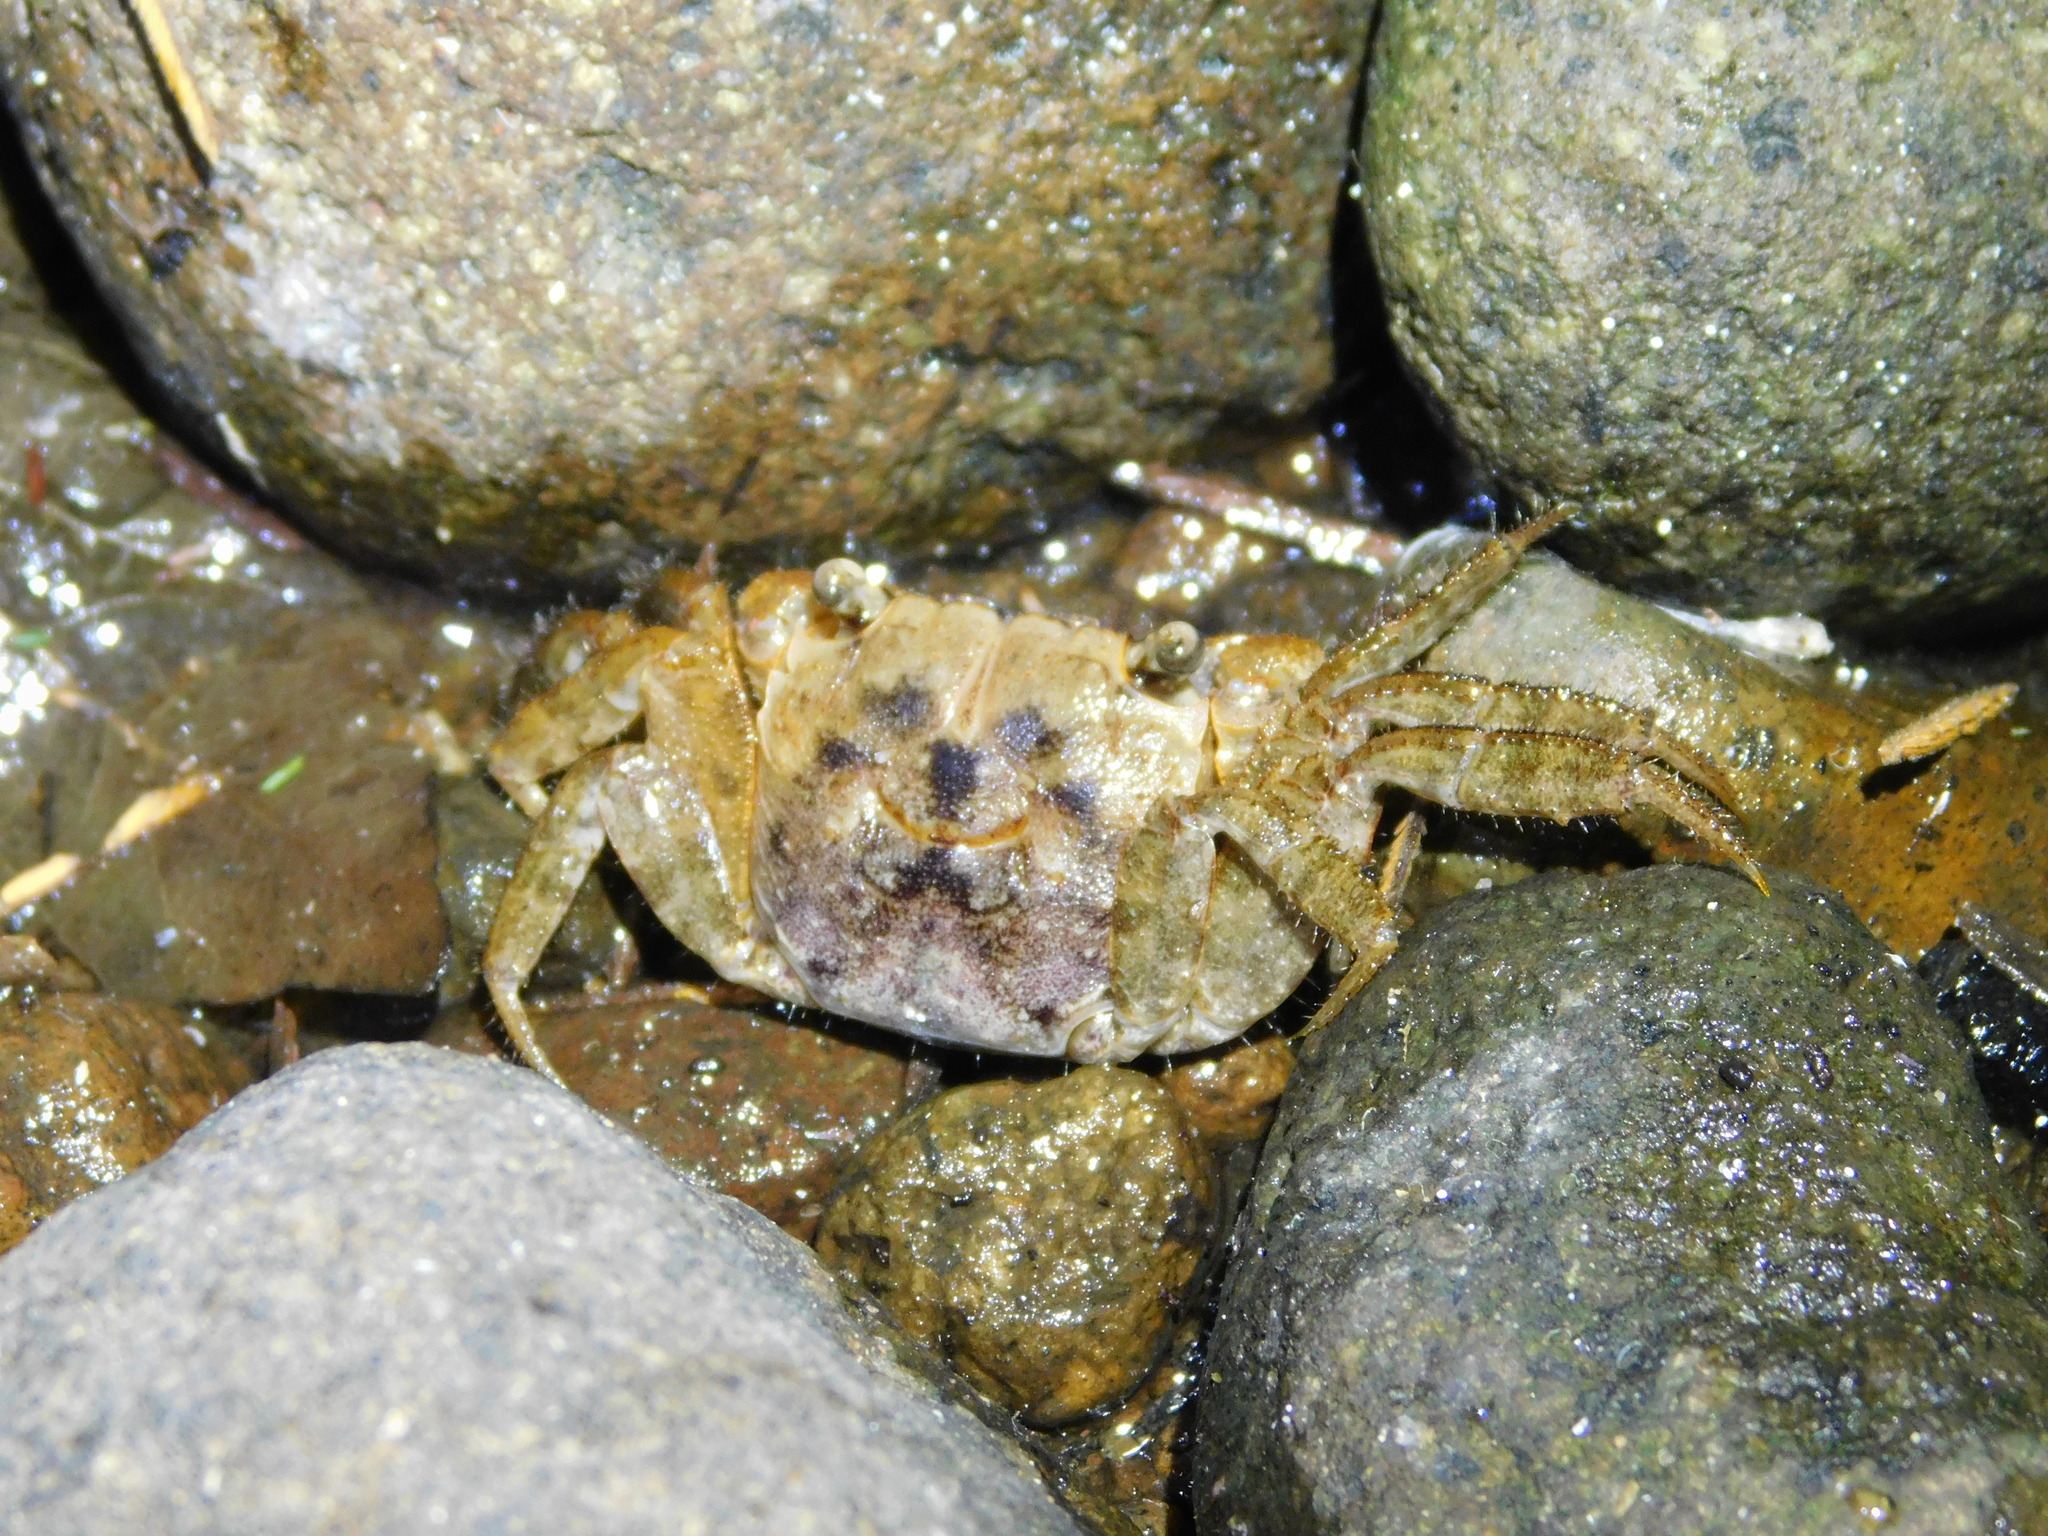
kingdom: Animalia
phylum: Arthropoda
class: Malacostraca
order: Decapoda
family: Sesarmidae
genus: Metasesarma
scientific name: Metasesarma obesum
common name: Marble crab
